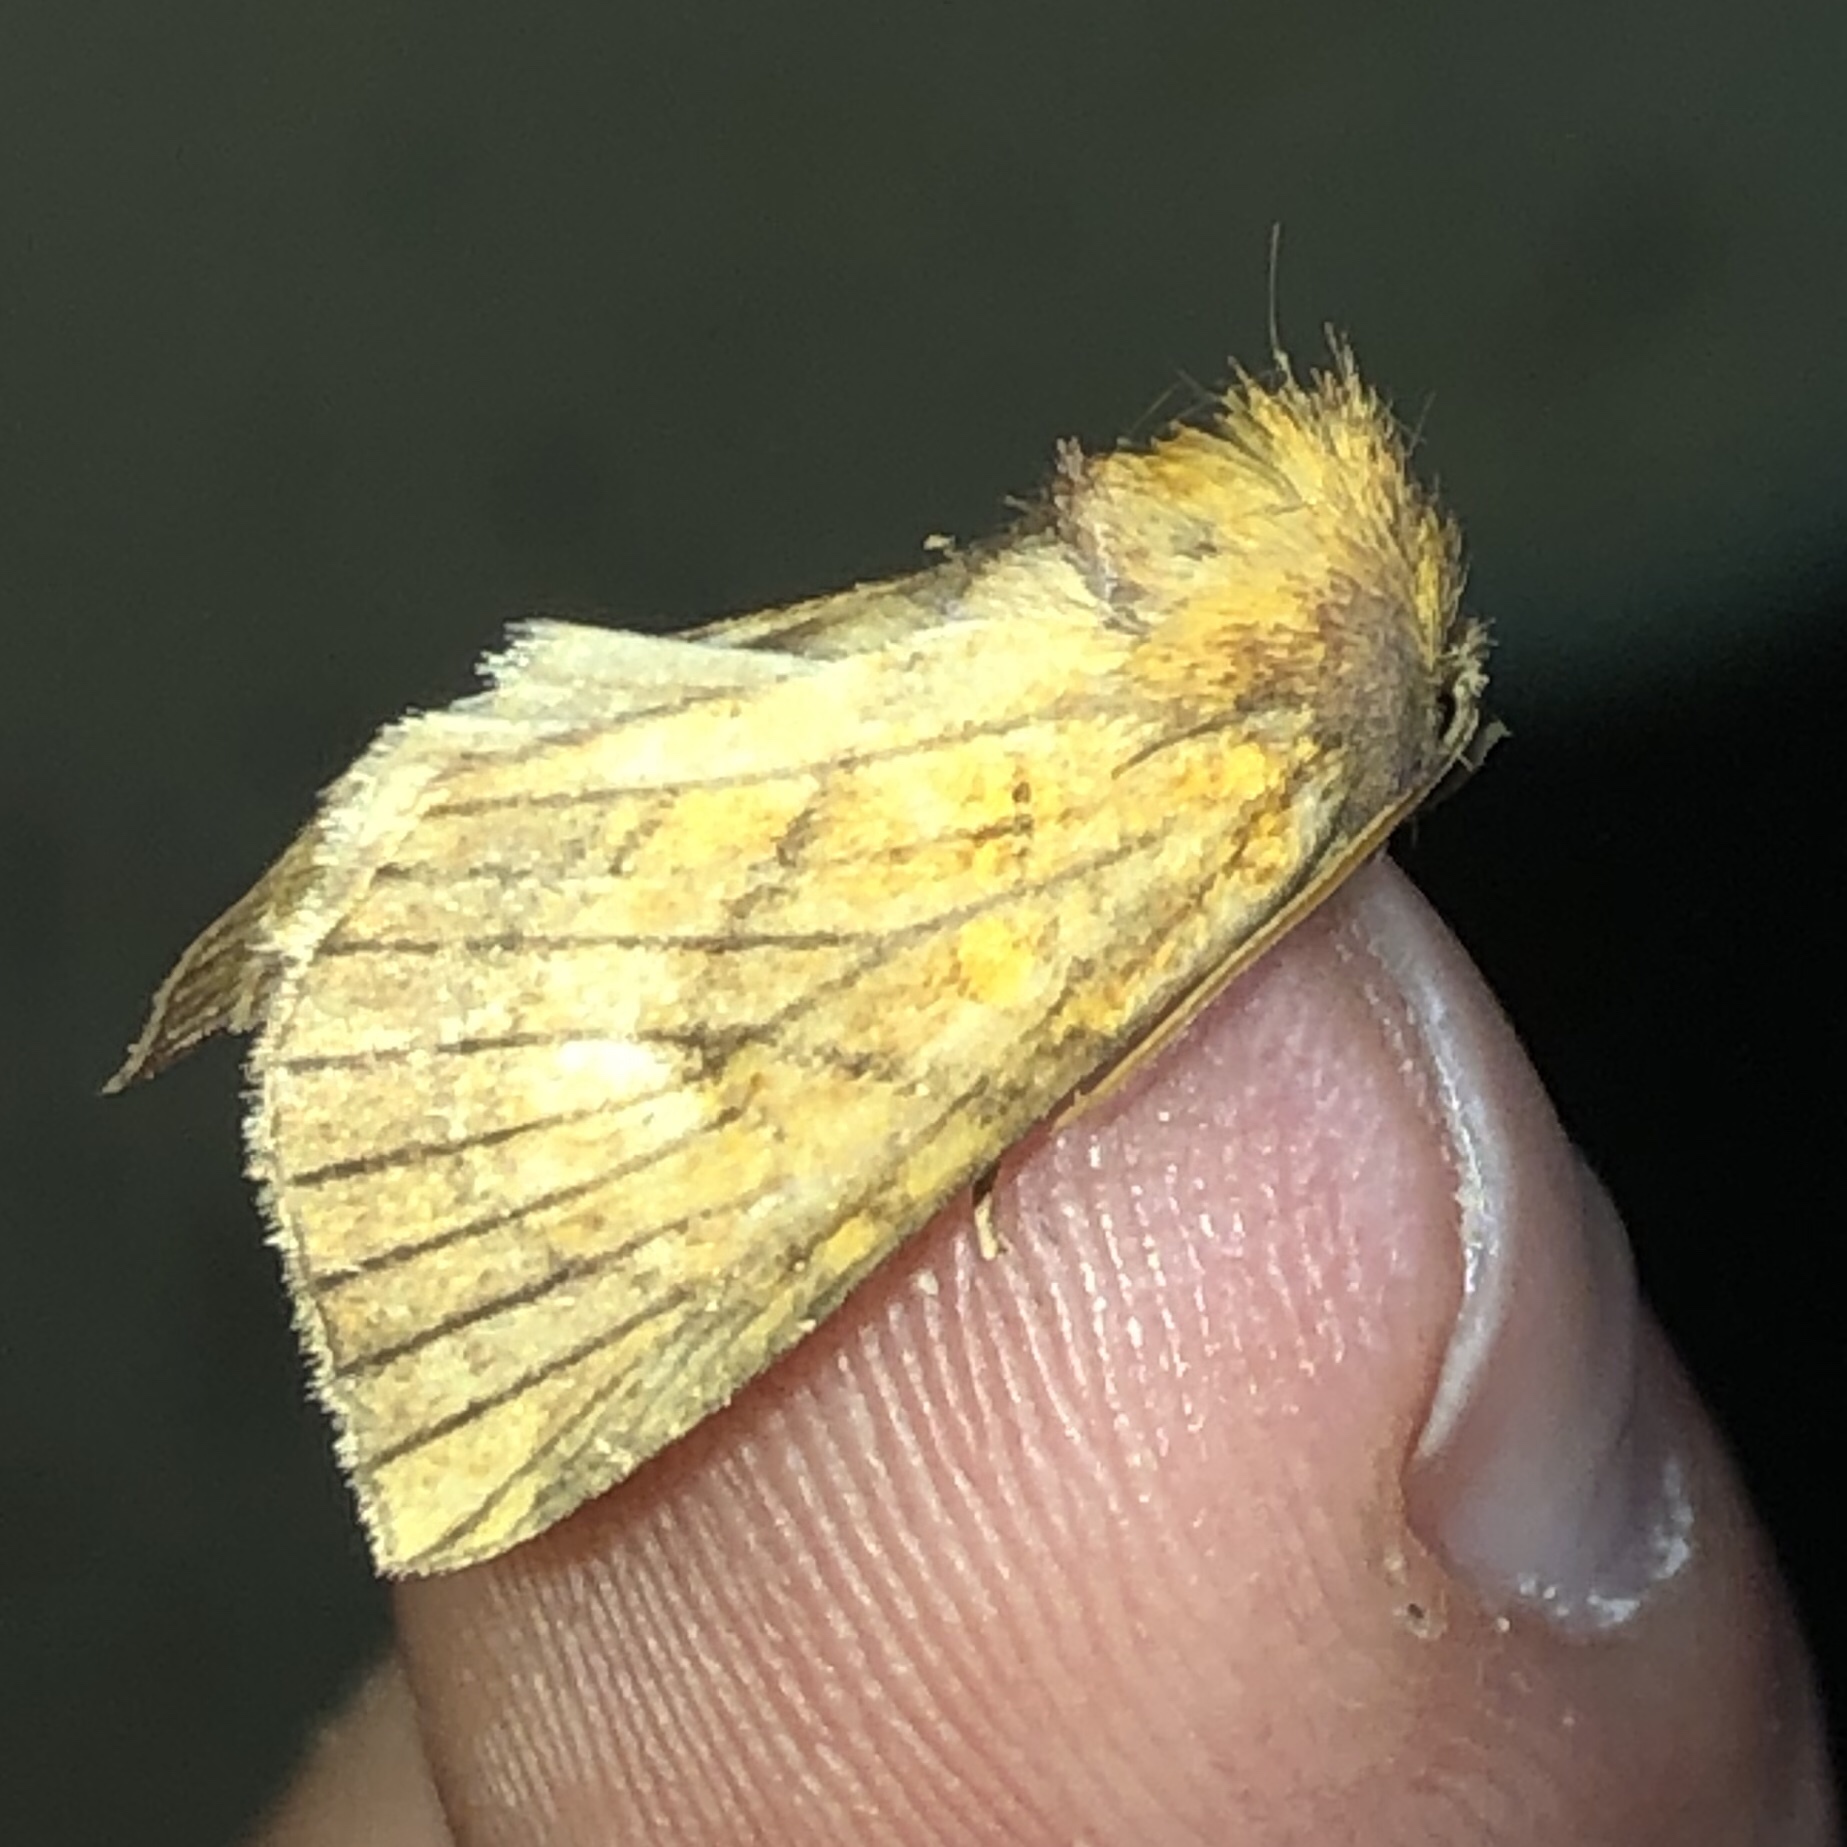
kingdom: Animalia
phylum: Arthropoda
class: Insecta
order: Lepidoptera
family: Noctuidae
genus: Papaipema
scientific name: Papaipema inquaesita
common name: Sensitive fern borer moth
